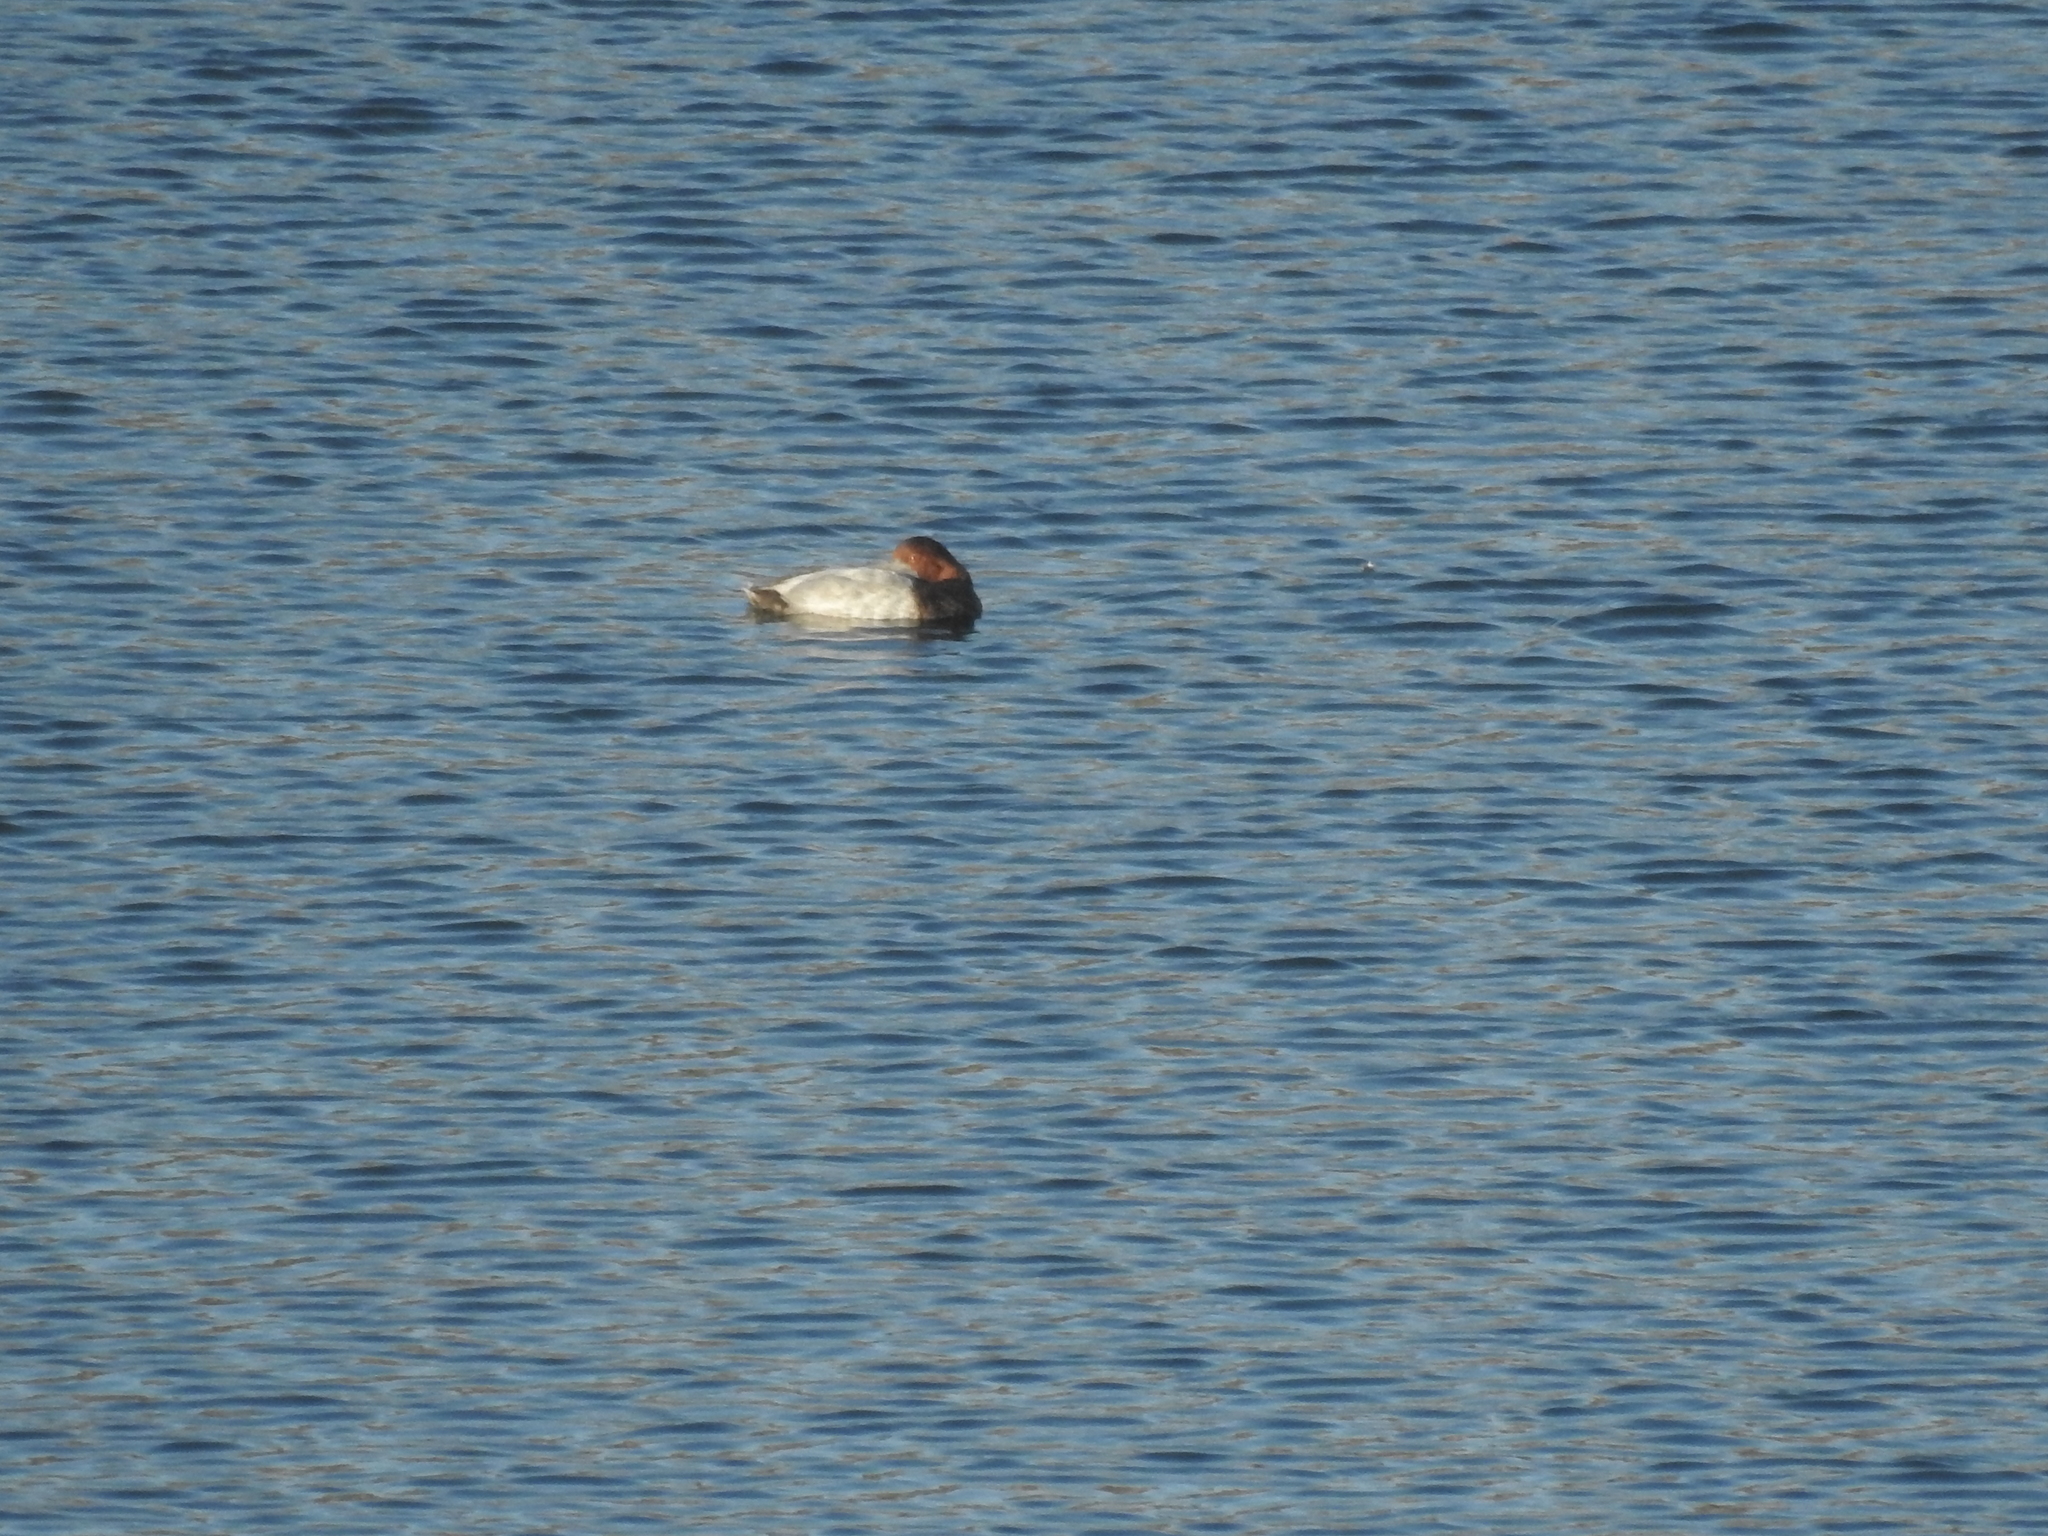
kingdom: Animalia
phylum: Chordata
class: Aves
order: Anseriformes
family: Anatidae
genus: Aythya
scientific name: Aythya ferina
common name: Common pochard
